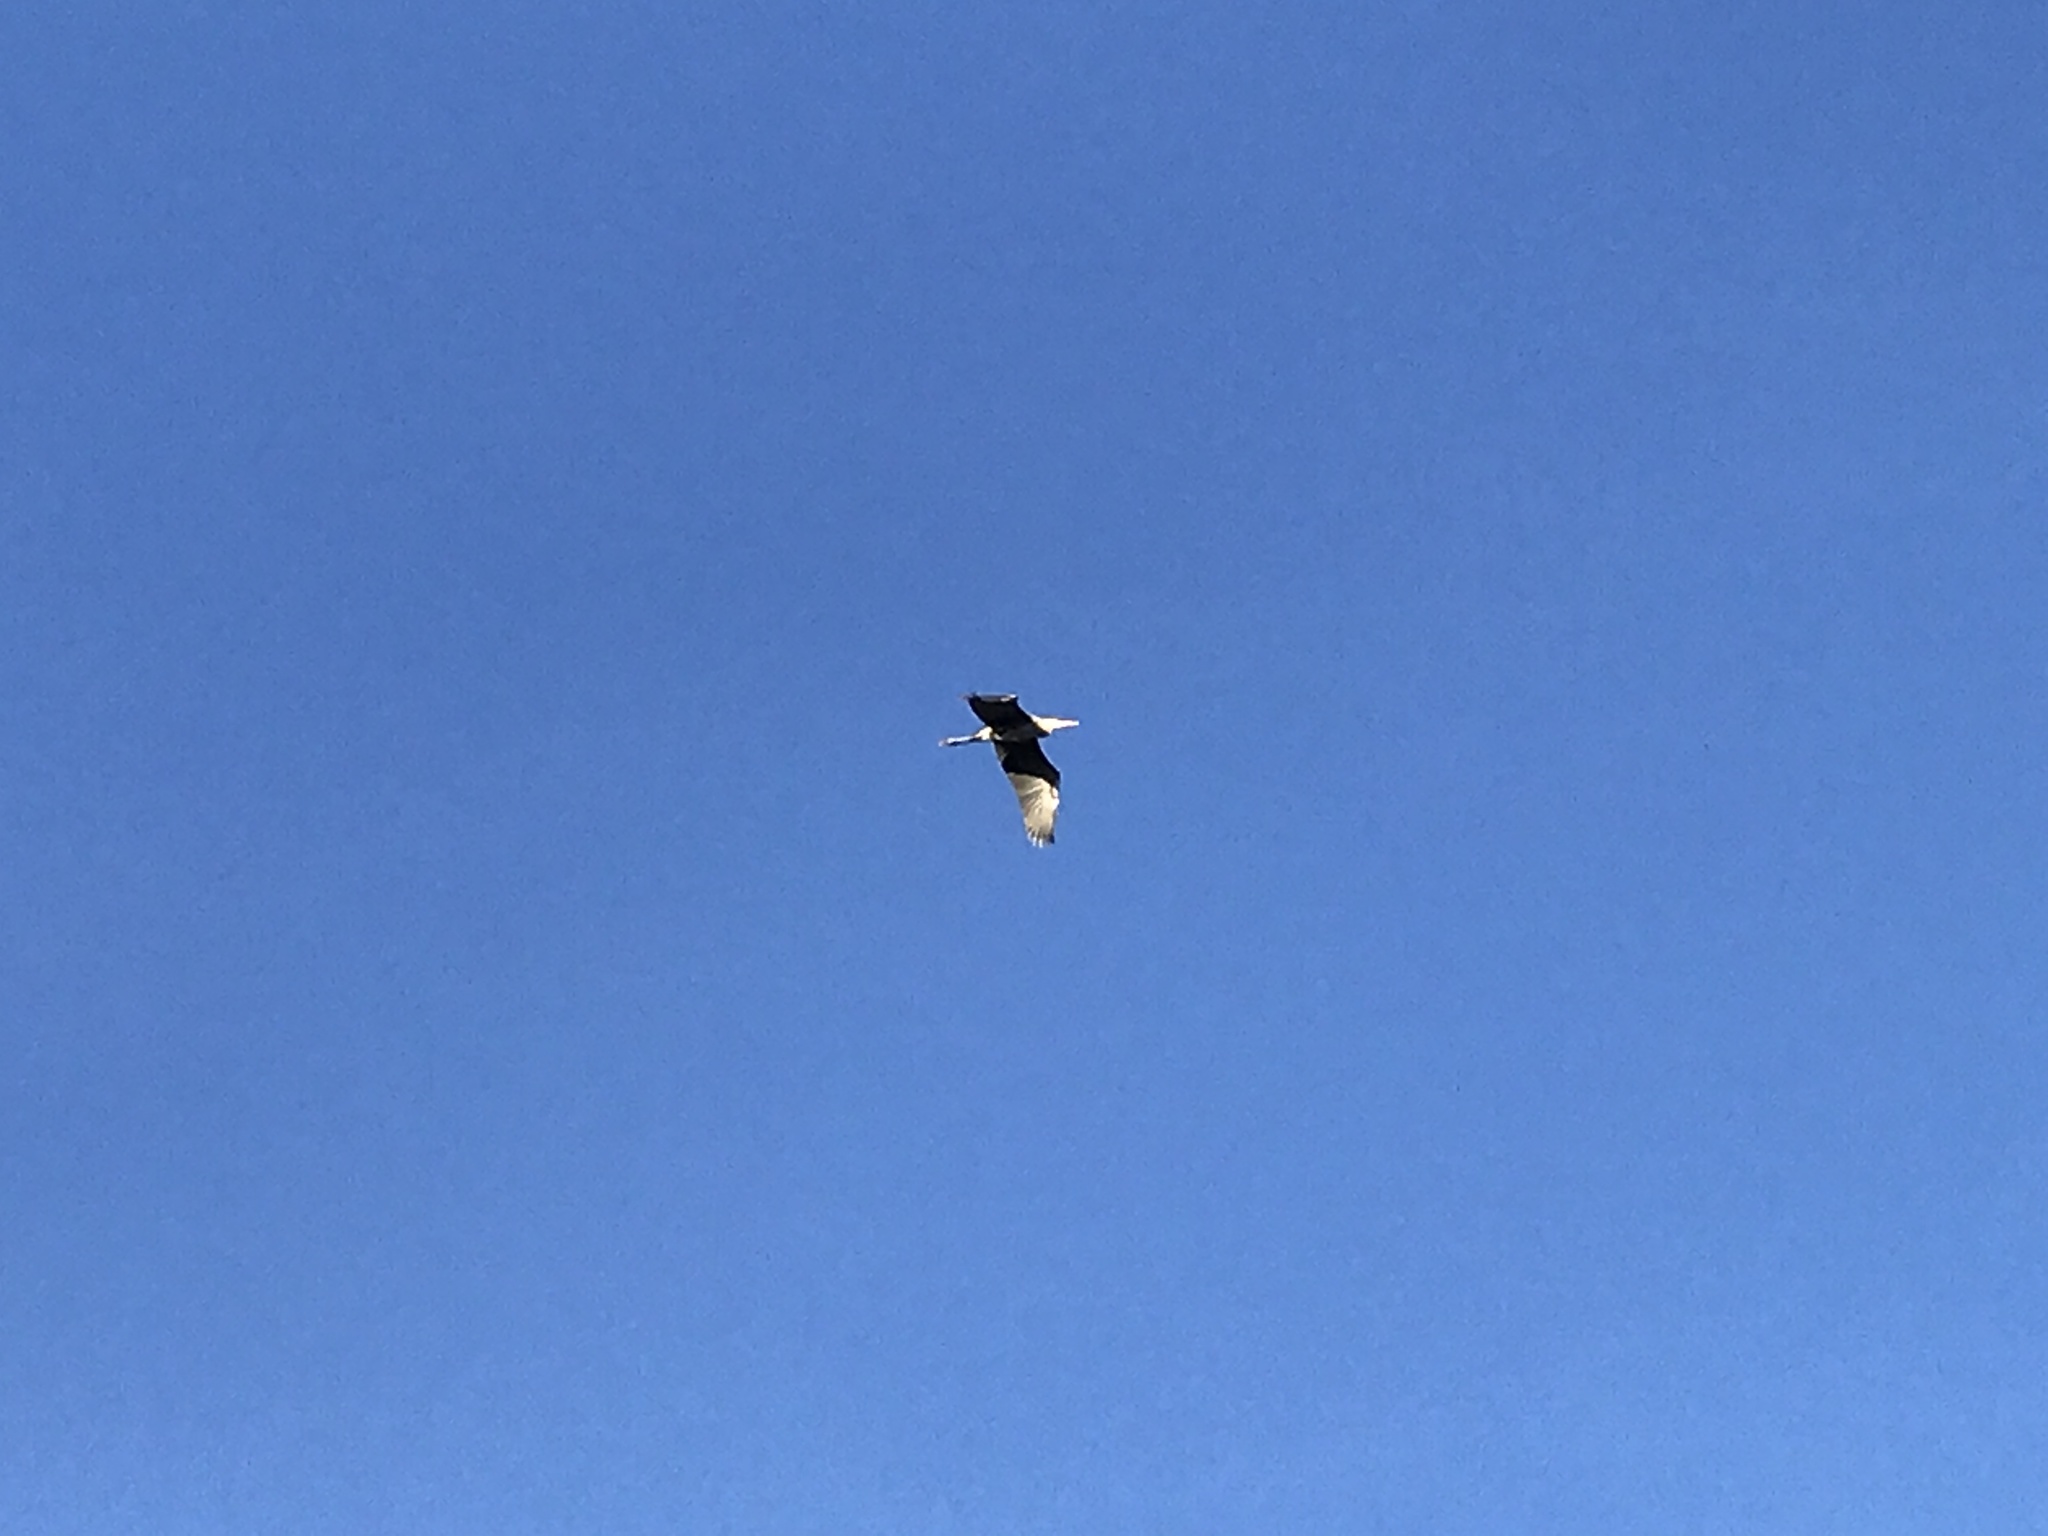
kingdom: Animalia
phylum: Chordata
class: Aves
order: Pelecaniformes
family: Ardeidae
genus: Ardea
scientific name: Ardea herodias
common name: Great blue heron
